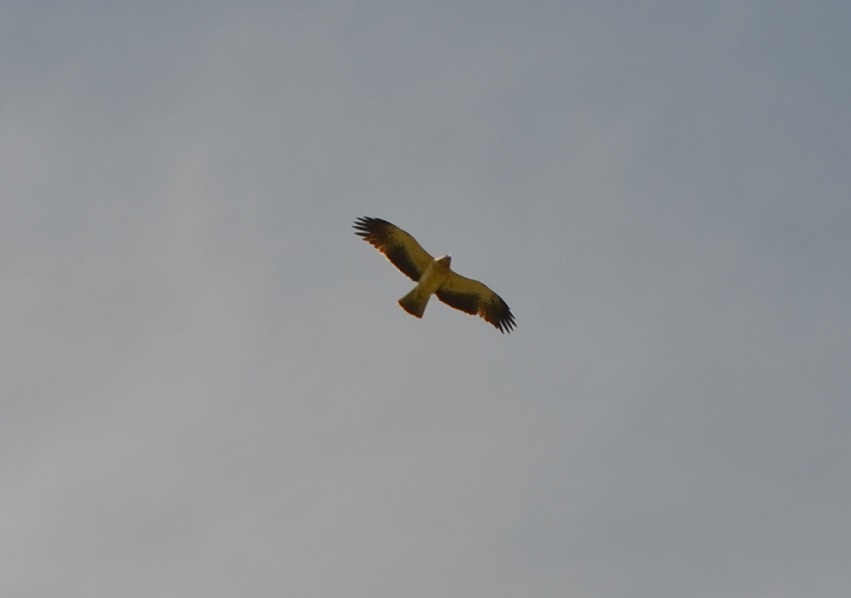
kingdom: Animalia
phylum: Chordata
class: Aves
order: Accipitriformes
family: Accipitridae
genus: Hieraaetus
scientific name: Hieraaetus pennatus
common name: Booted eagle
